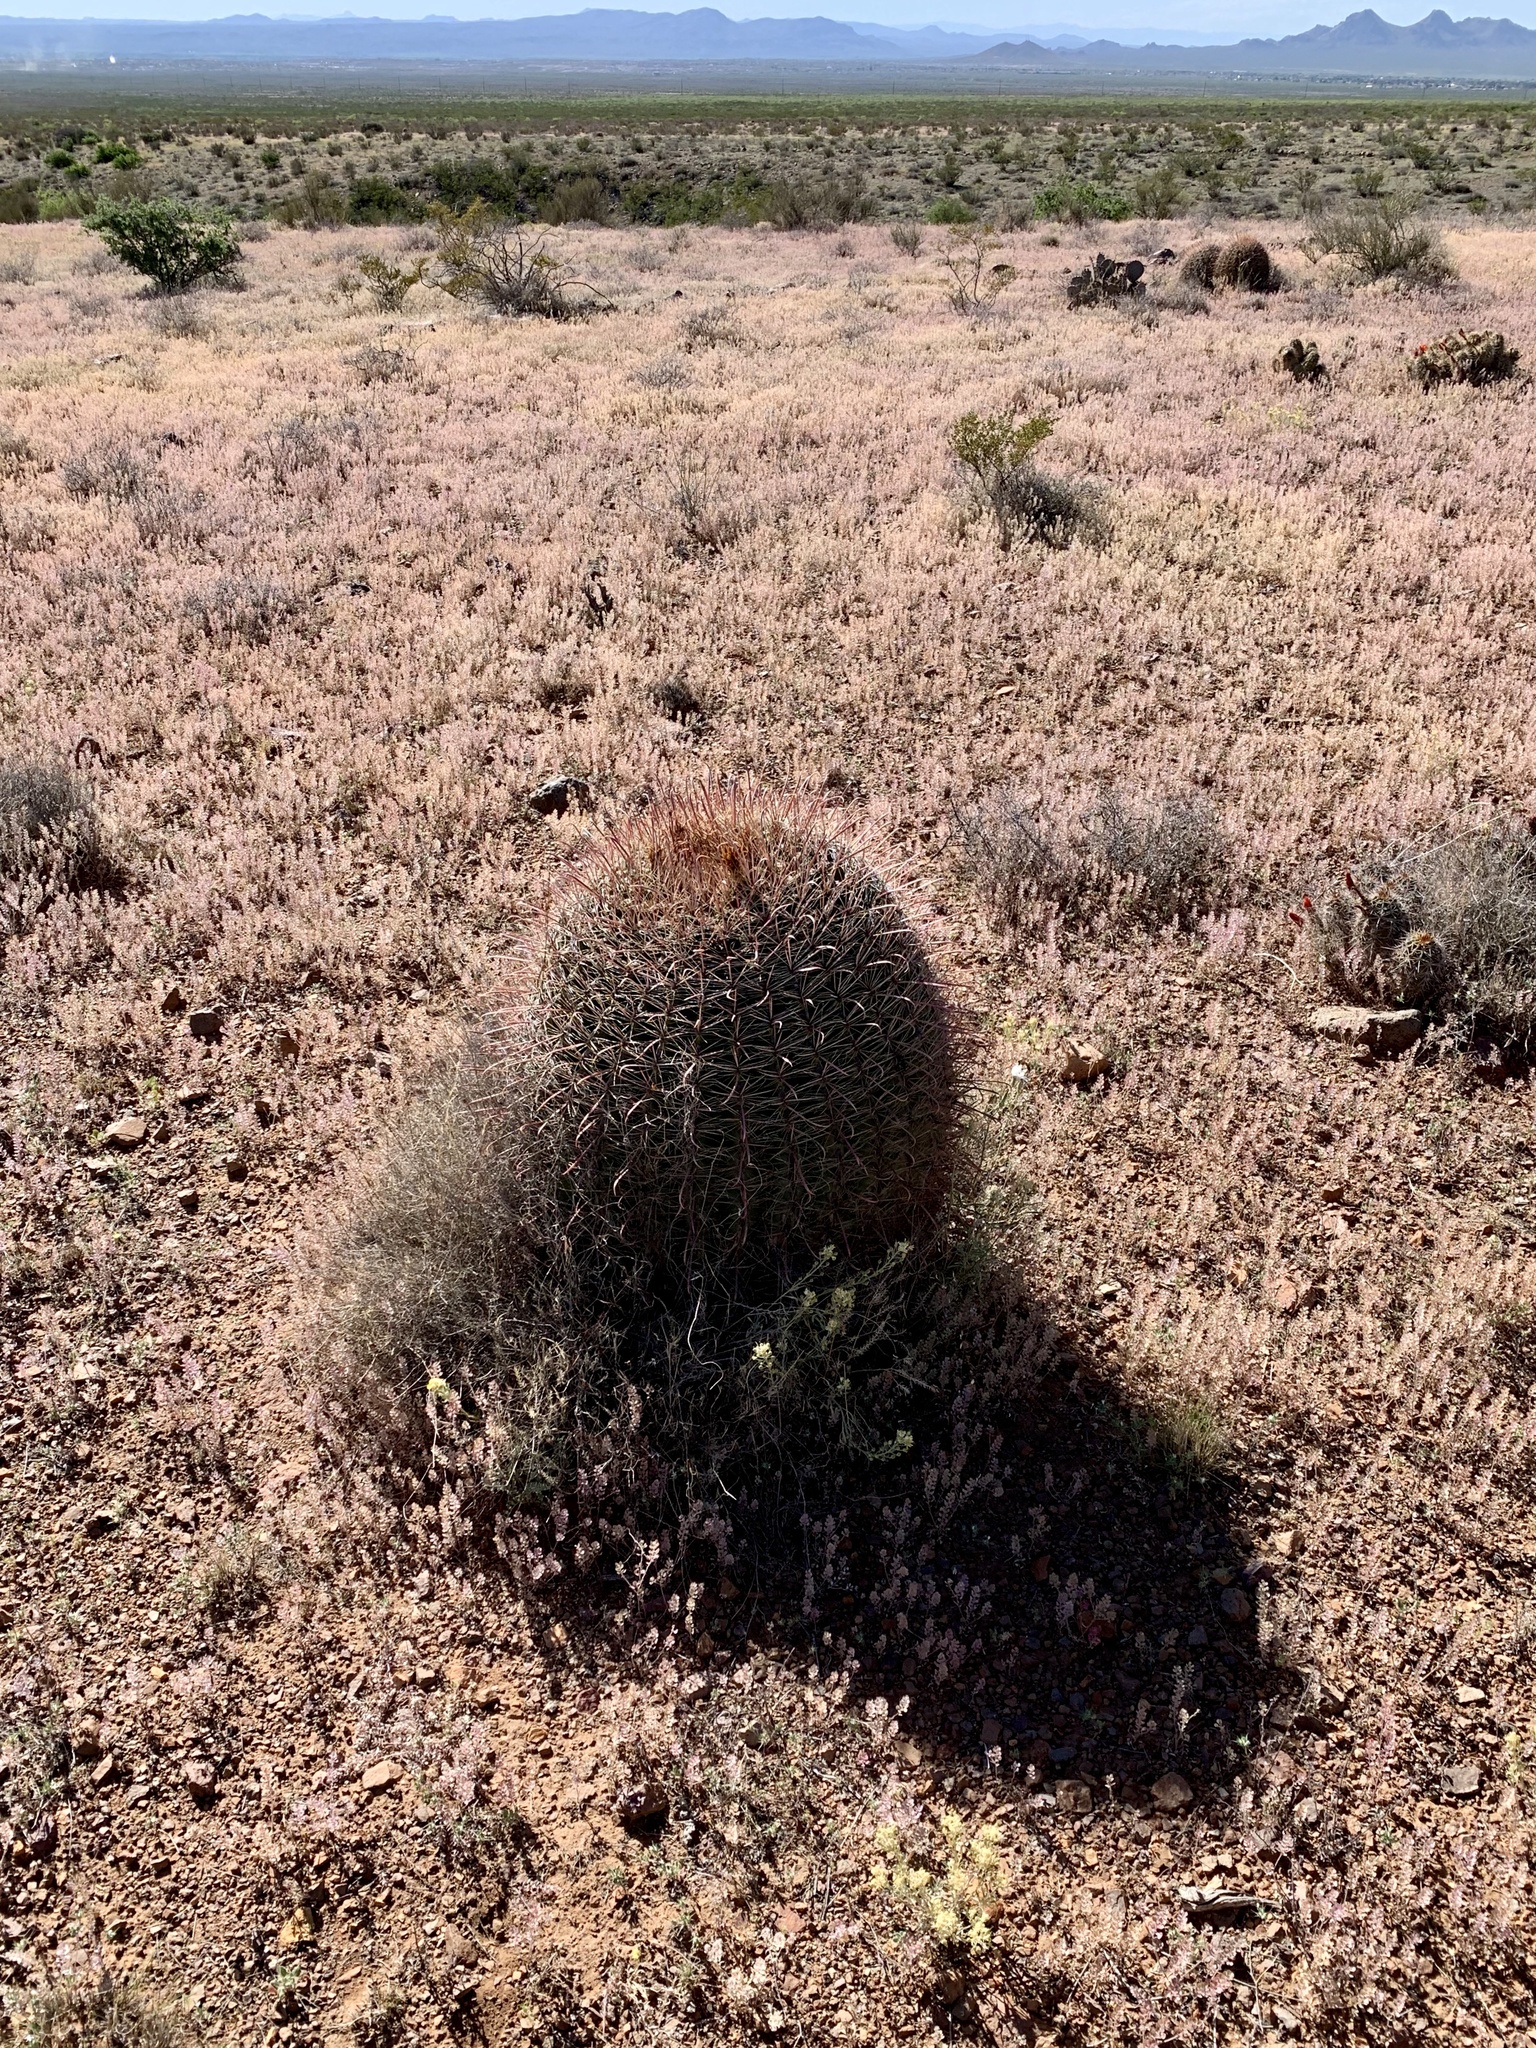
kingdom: Plantae
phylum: Tracheophyta
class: Magnoliopsida
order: Caryophyllales
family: Cactaceae
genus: Ferocactus
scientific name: Ferocactus wislizeni
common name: Candy barrel cactus
